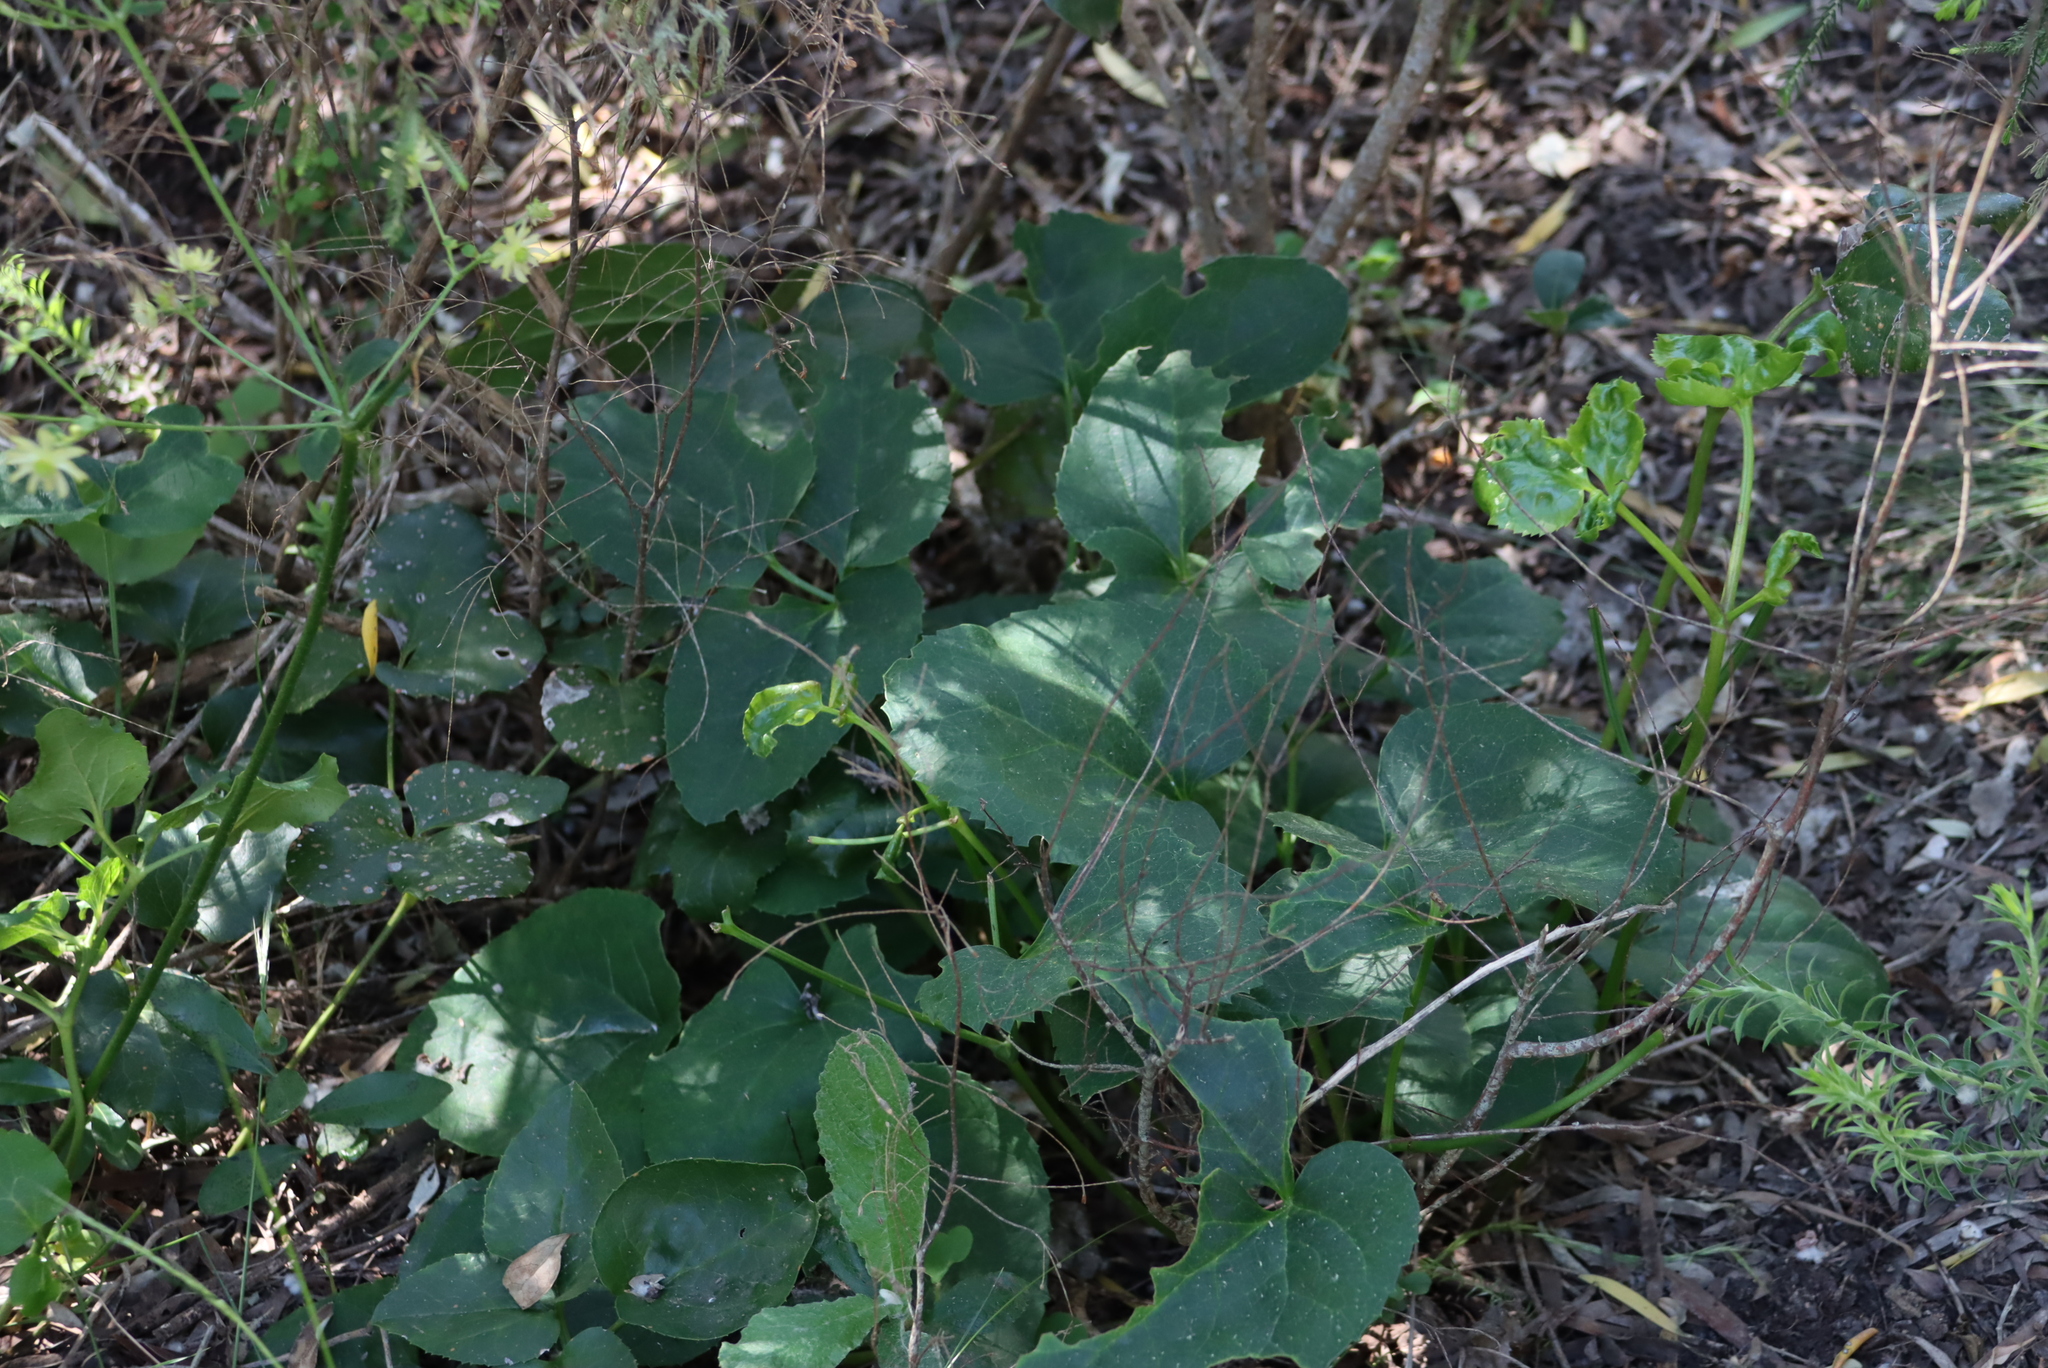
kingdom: Plantae
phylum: Tracheophyta
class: Magnoliopsida
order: Ranunculales
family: Ranunculaceae
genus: Knowltonia
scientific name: Knowltonia vesicatoria
